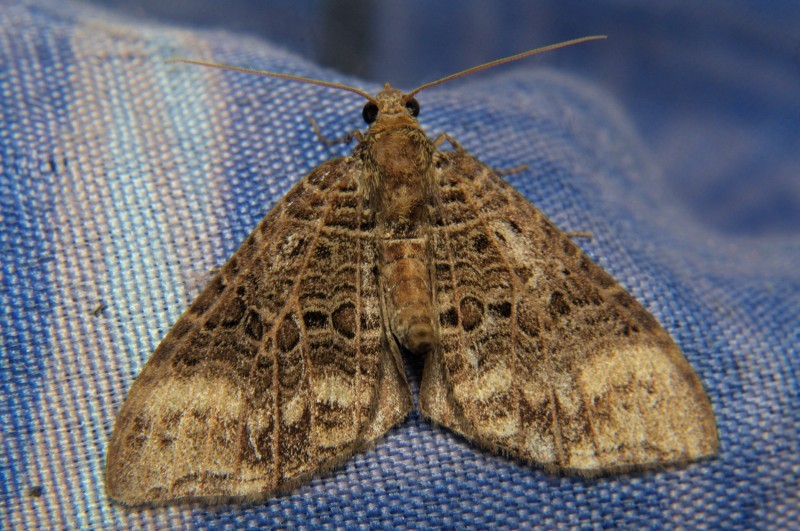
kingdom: Animalia
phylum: Arthropoda
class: Insecta
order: Lepidoptera
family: Geometridae
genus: Ecliptopera
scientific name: Ecliptopera furva
